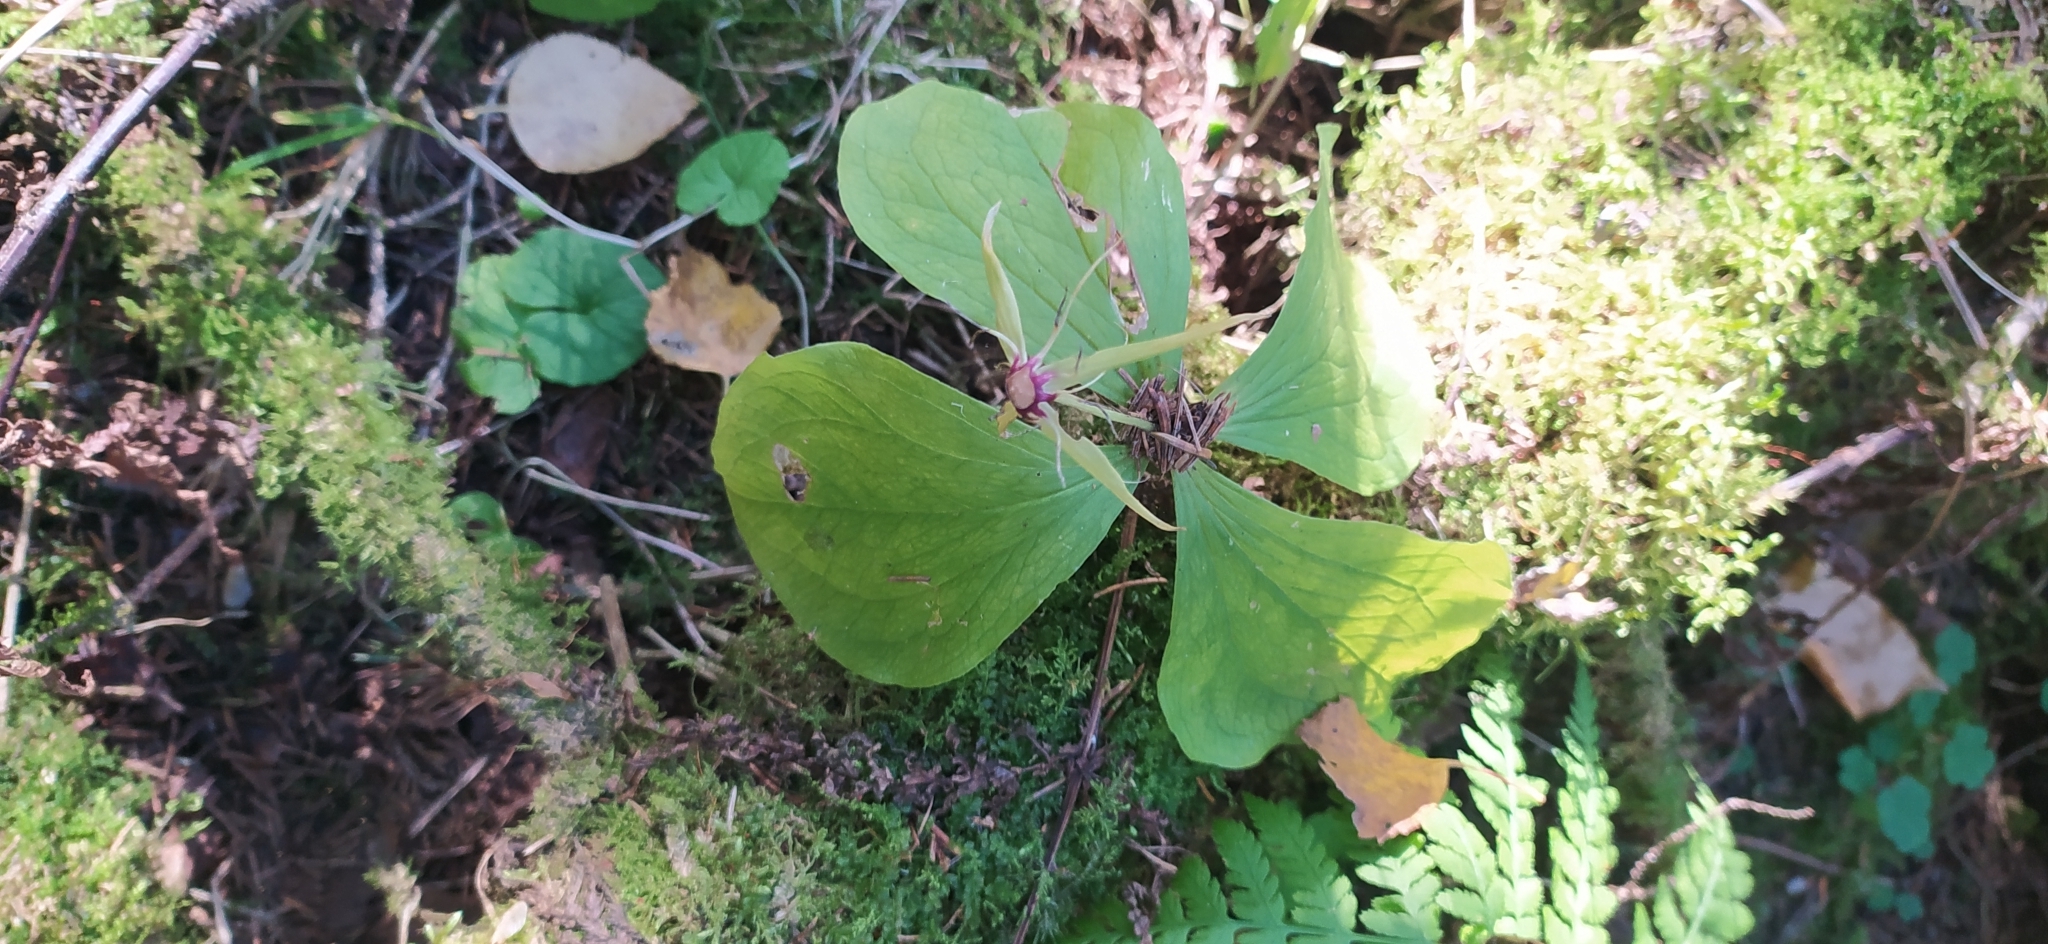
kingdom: Plantae
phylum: Tracheophyta
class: Liliopsida
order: Liliales
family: Melanthiaceae
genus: Paris
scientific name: Paris quadrifolia
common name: Herb-paris
